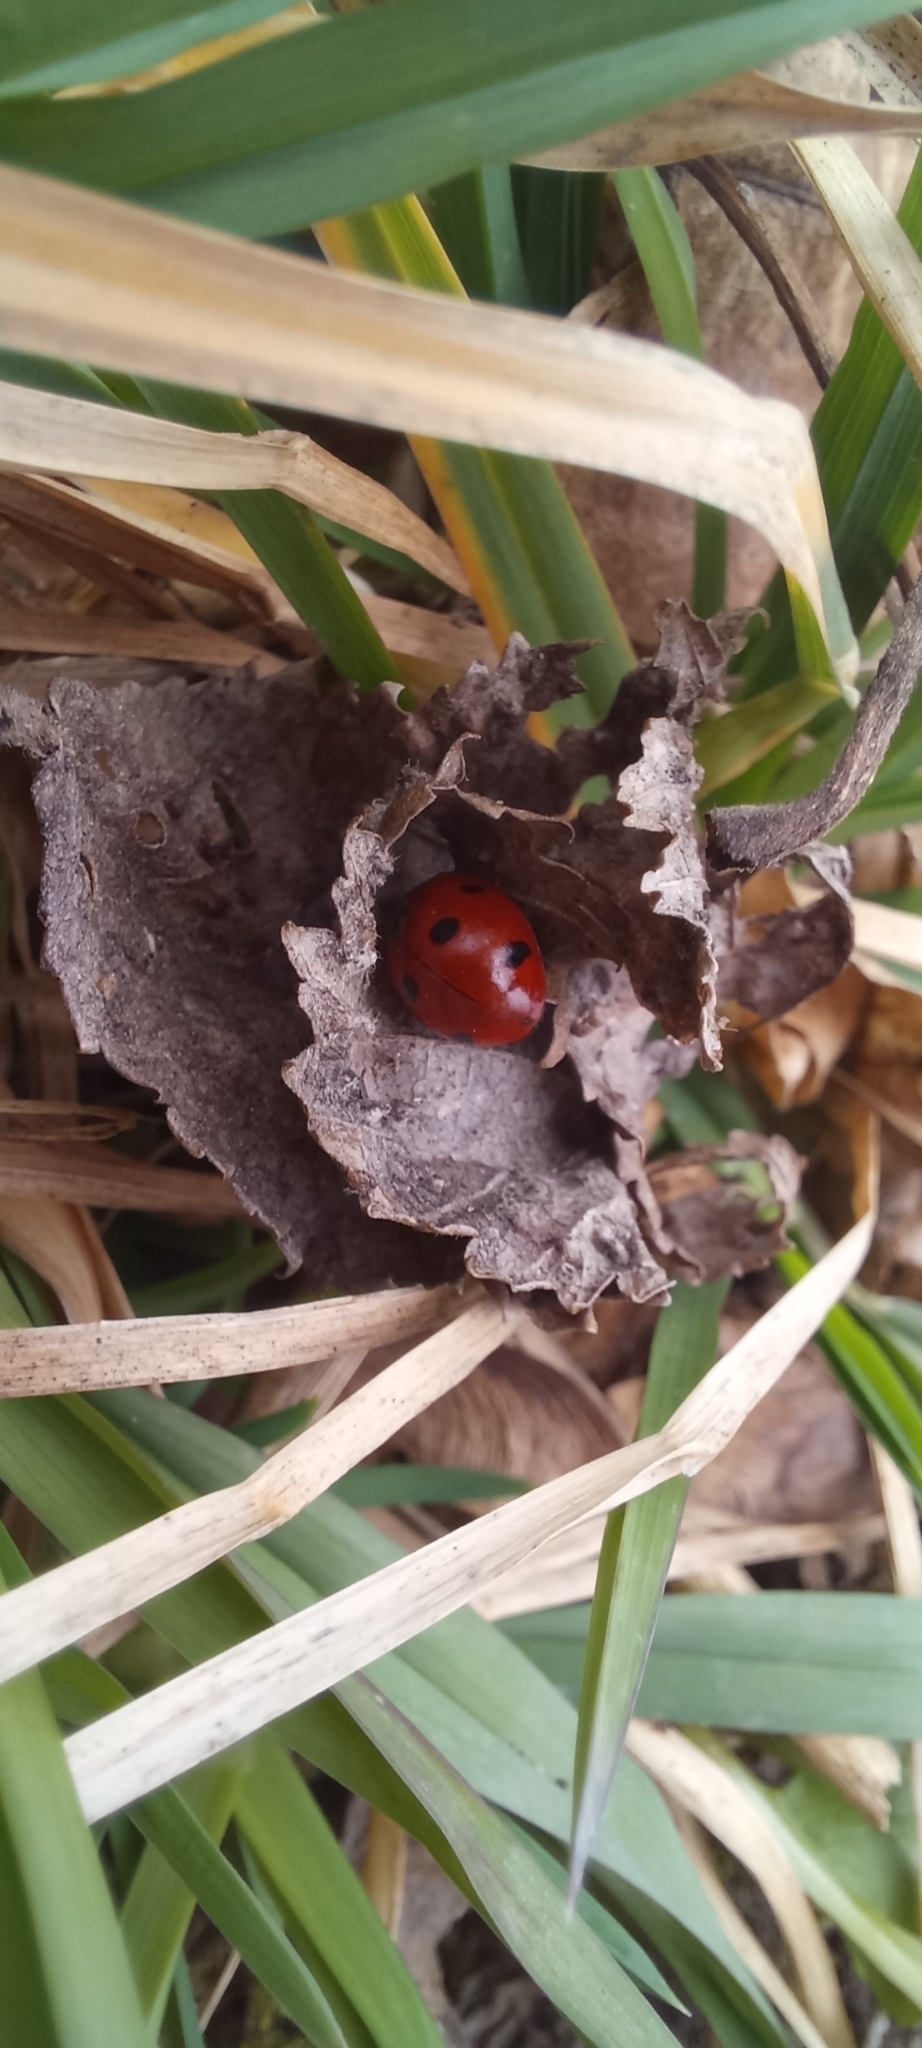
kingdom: Animalia
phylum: Arthropoda
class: Insecta
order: Coleoptera
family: Coccinellidae
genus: Coccinella
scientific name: Coccinella septempunctata
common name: Sevenspotted lady beetle
